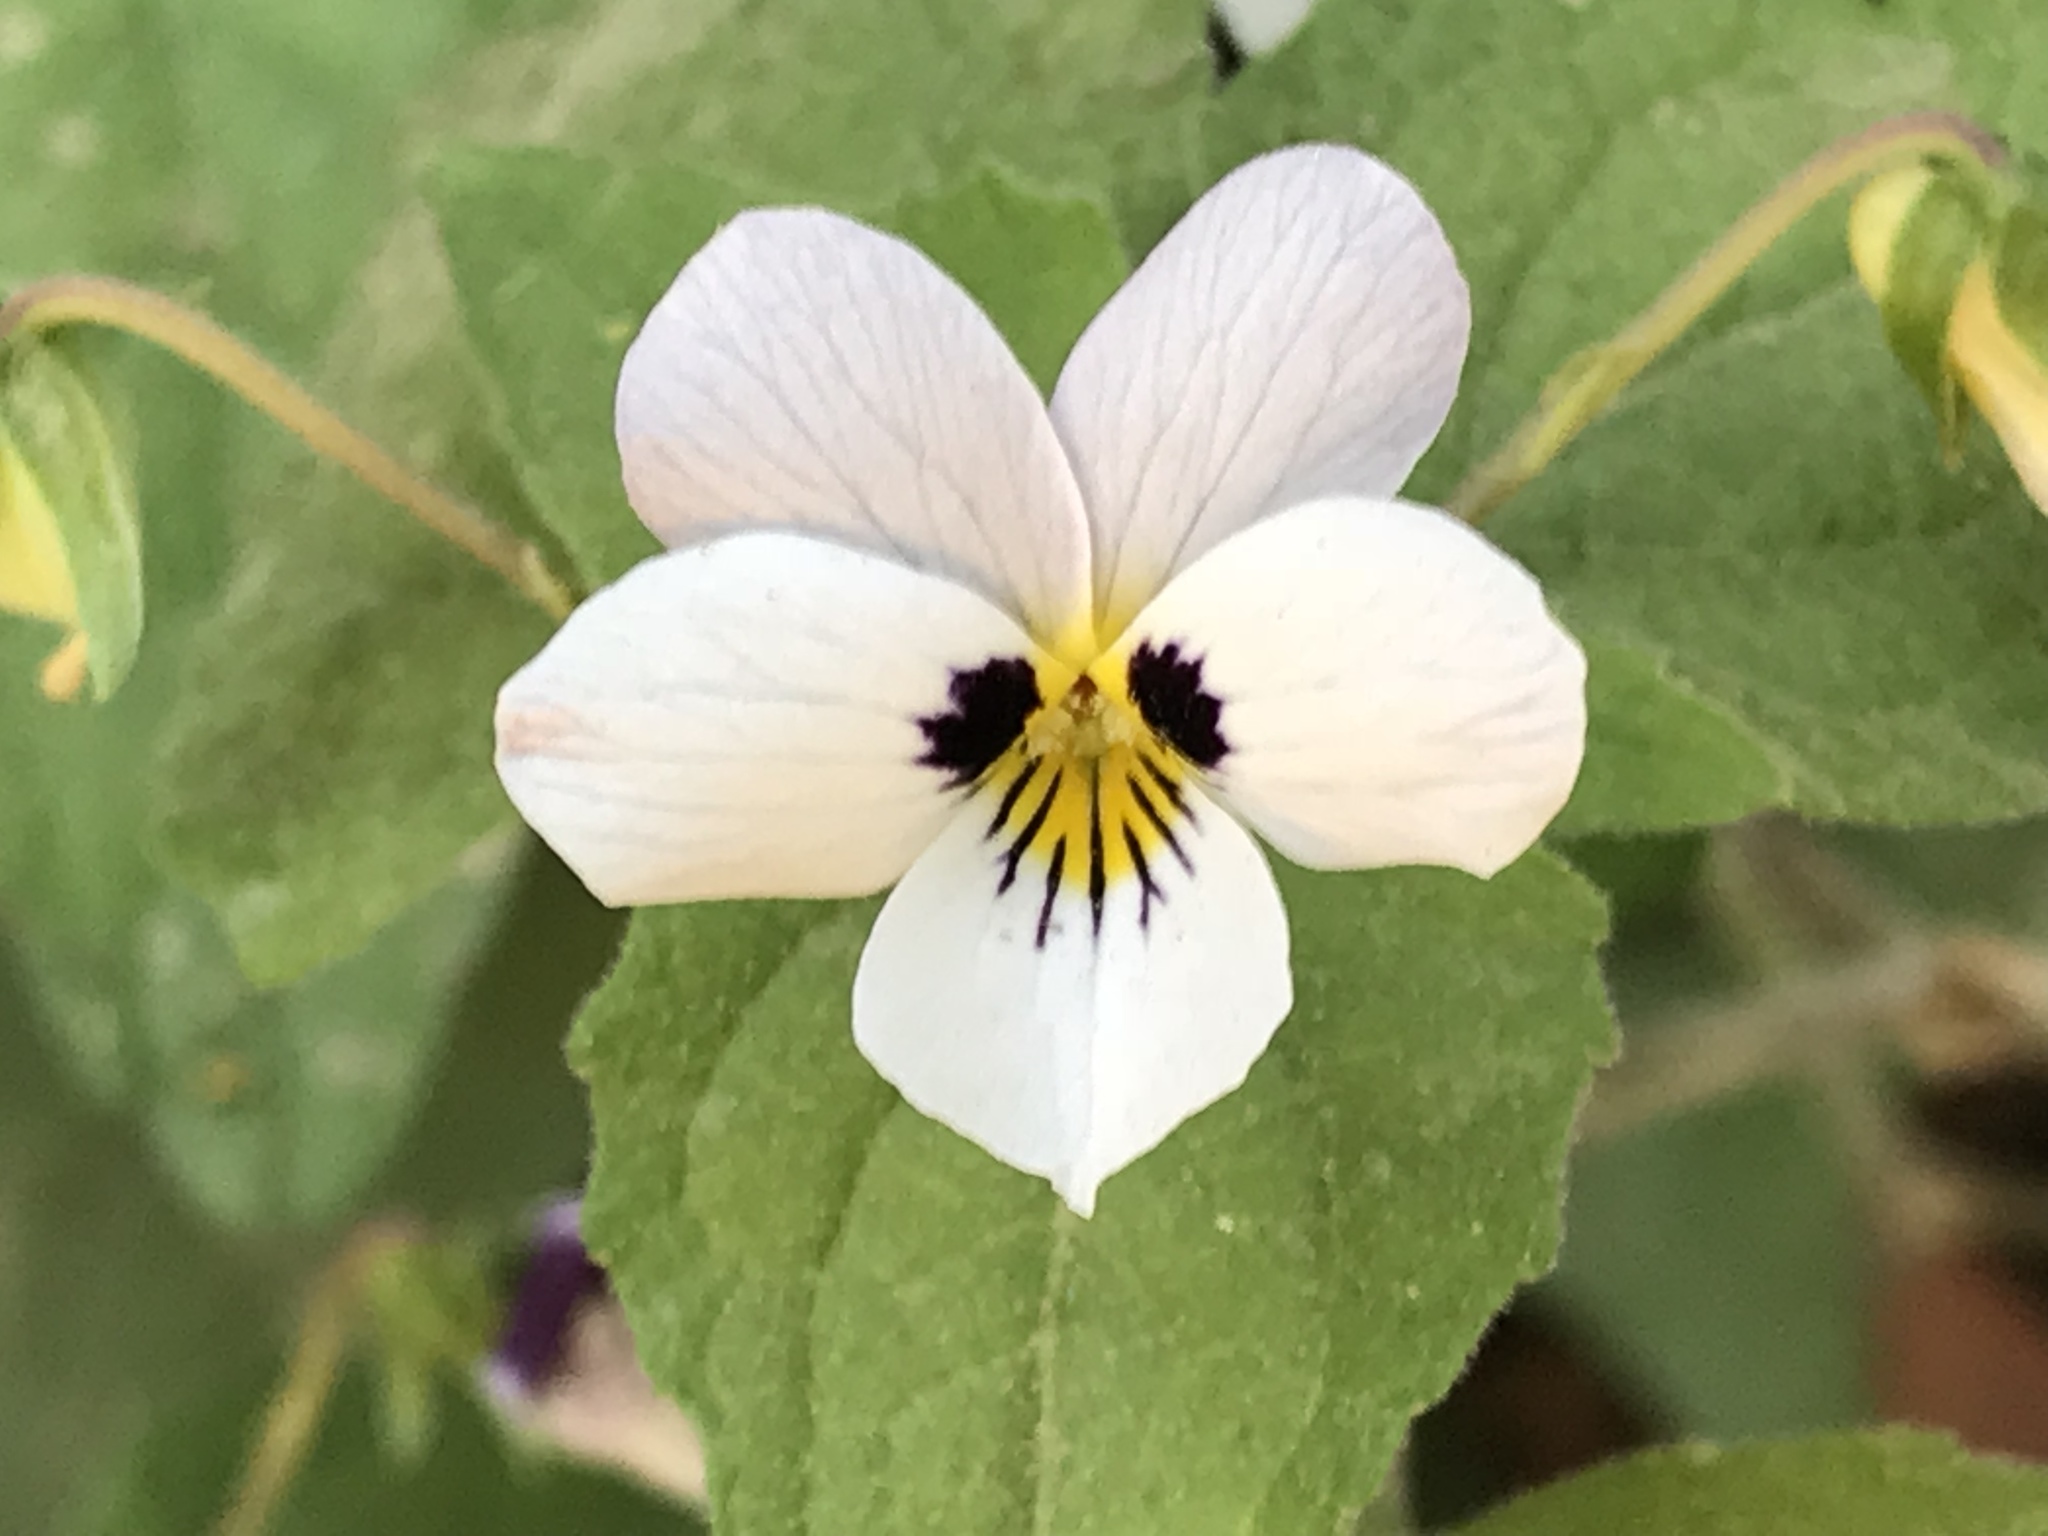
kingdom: Plantae
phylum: Tracheophyta
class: Magnoliopsida
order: Malpighiales
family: Violaceae
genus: Viola
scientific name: Viola ocellata
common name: Western heart's ease
